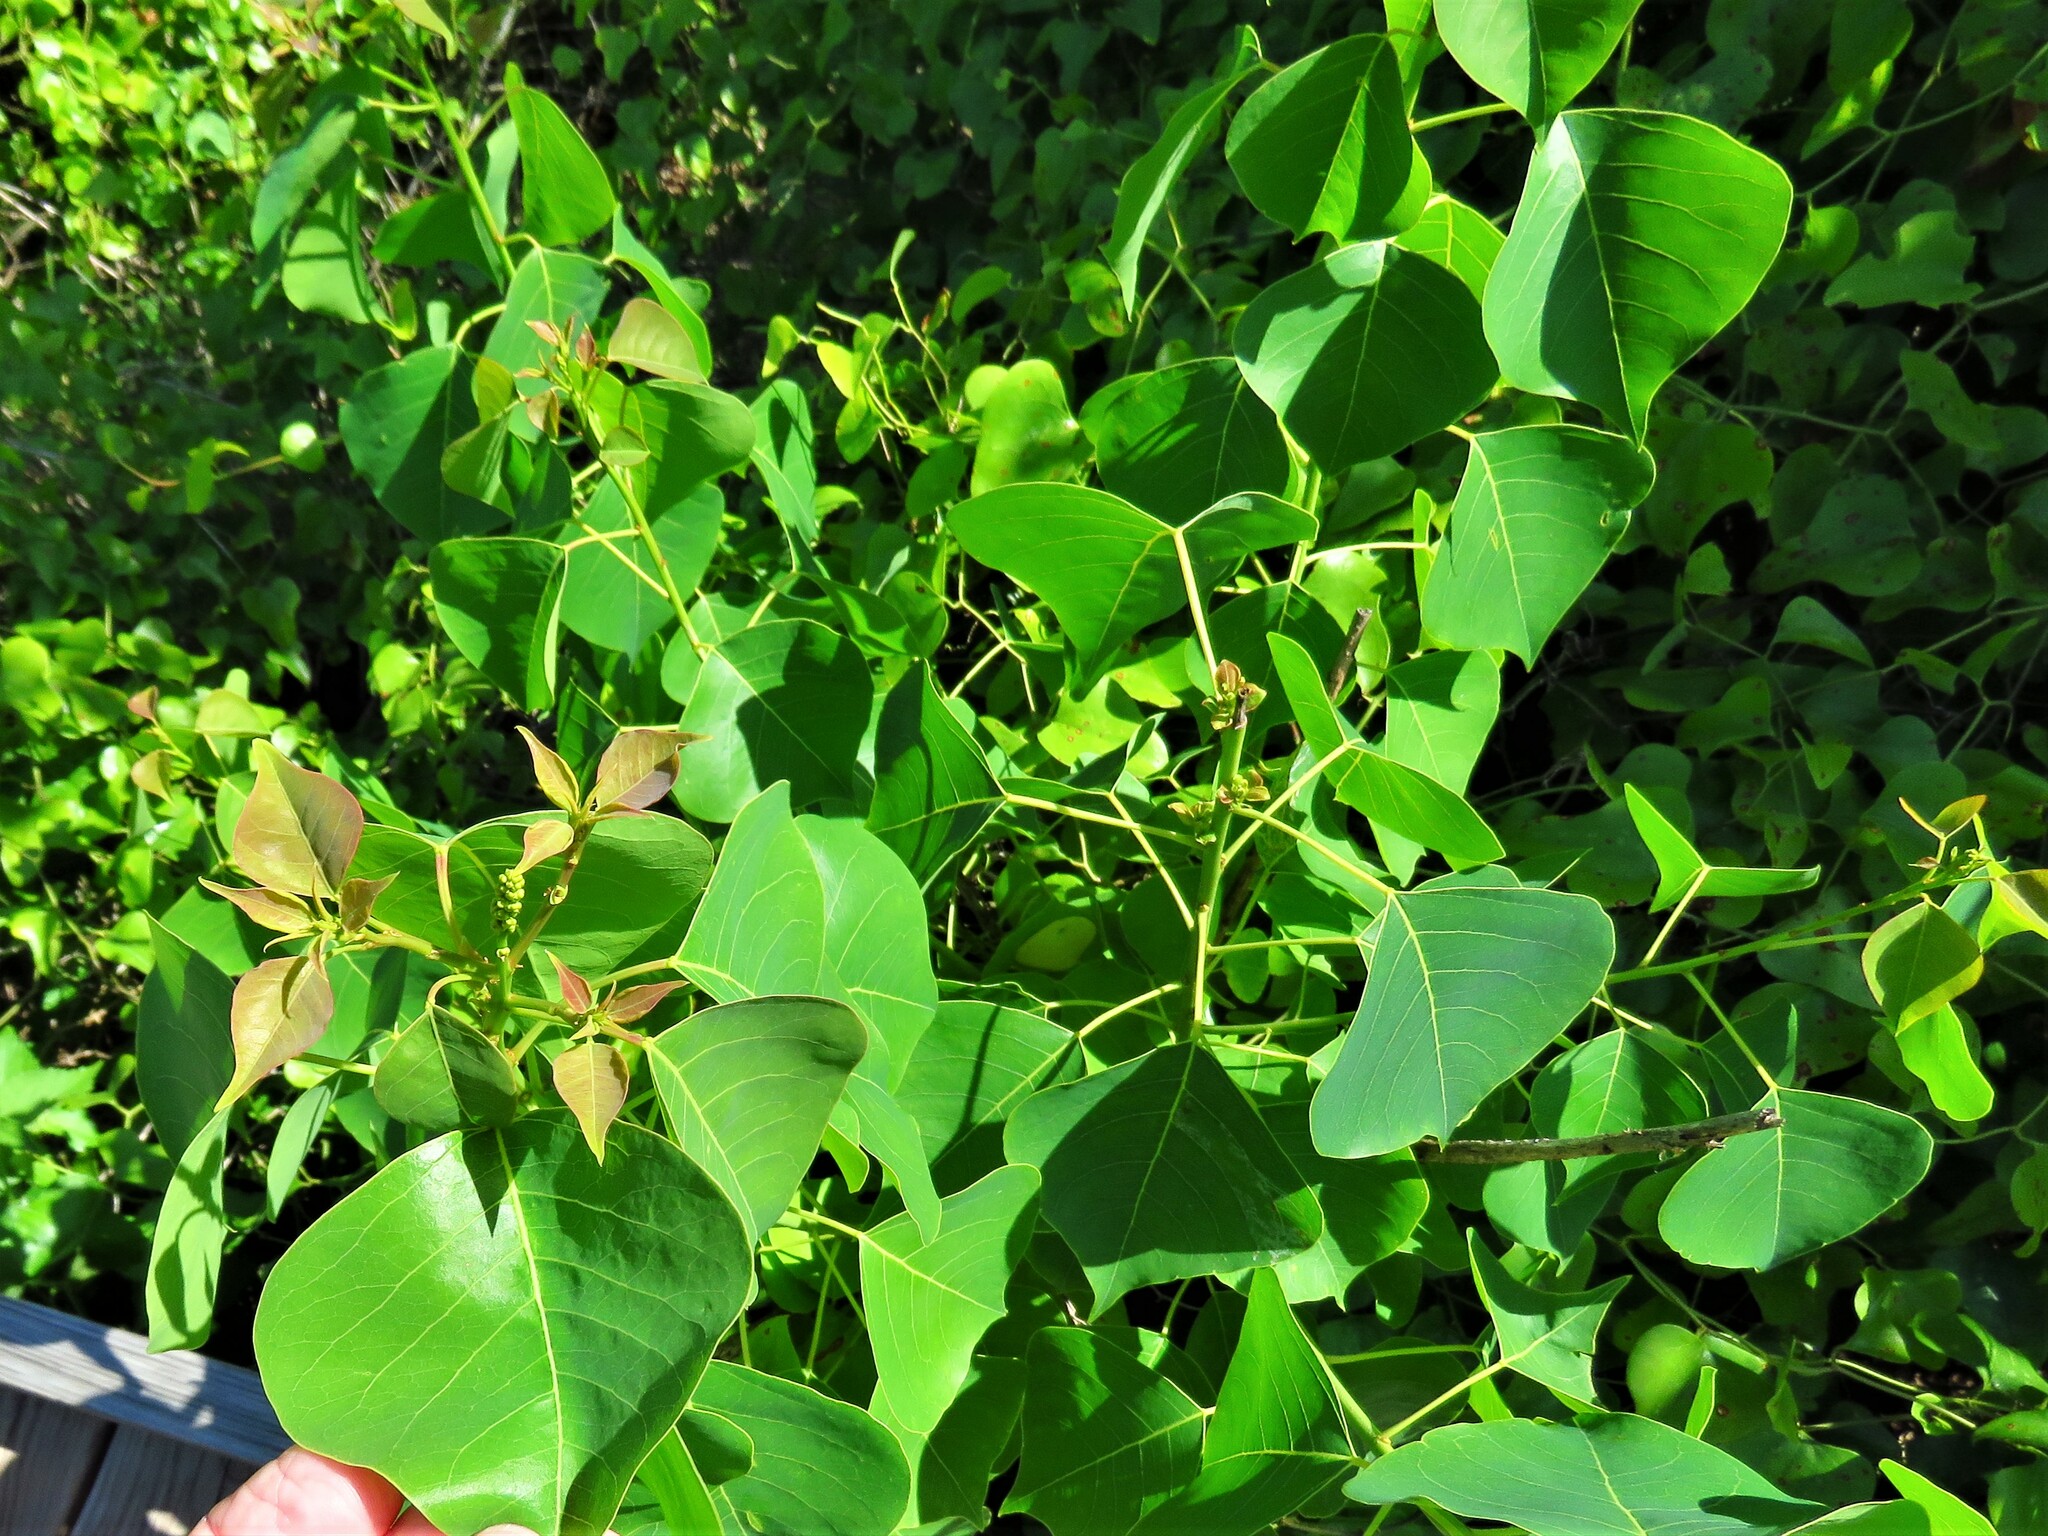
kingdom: Plantae
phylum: Tracheophyta
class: Magnoliopsida
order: Malpighiales
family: Euphorbiaceae
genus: Triadica
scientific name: Triadica sebifera
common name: Chinese tallow
